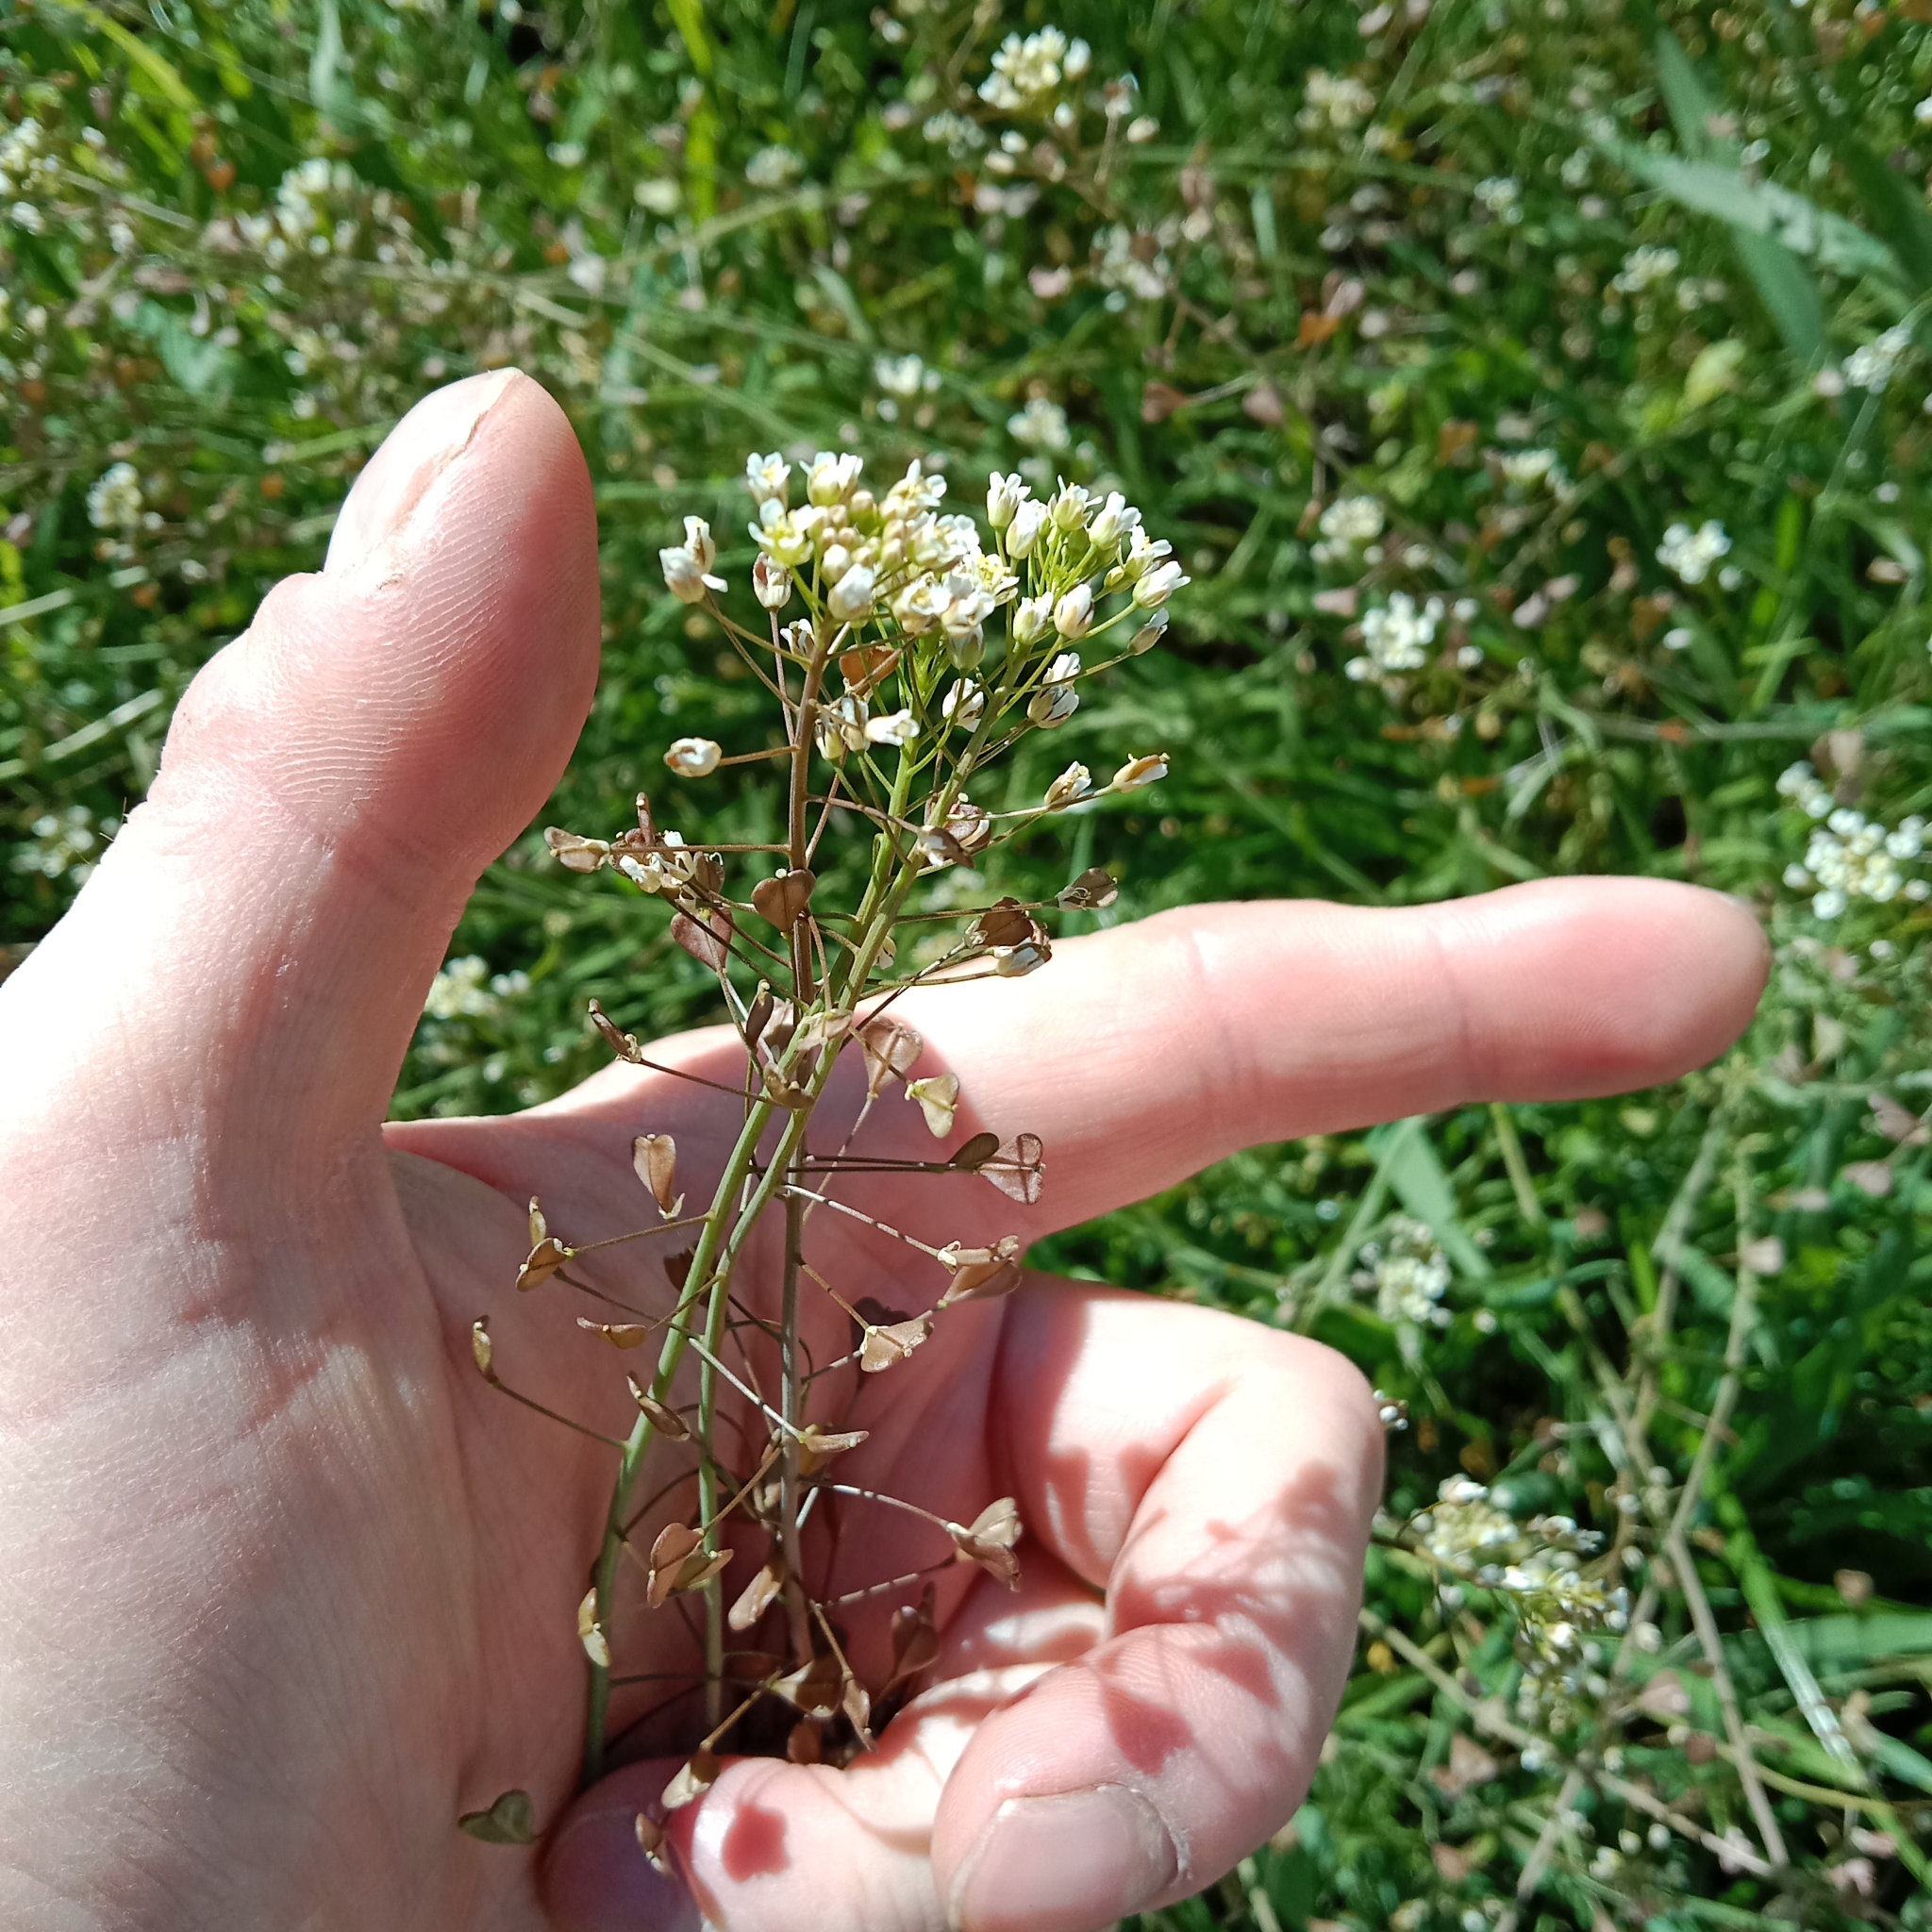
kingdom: Plantae
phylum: Tracheophyta
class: Magnoliopsida
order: Brassicales
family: Brassicaceae
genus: Capsella
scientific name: Capsella bursa-pastoris
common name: Shepherd's purse
